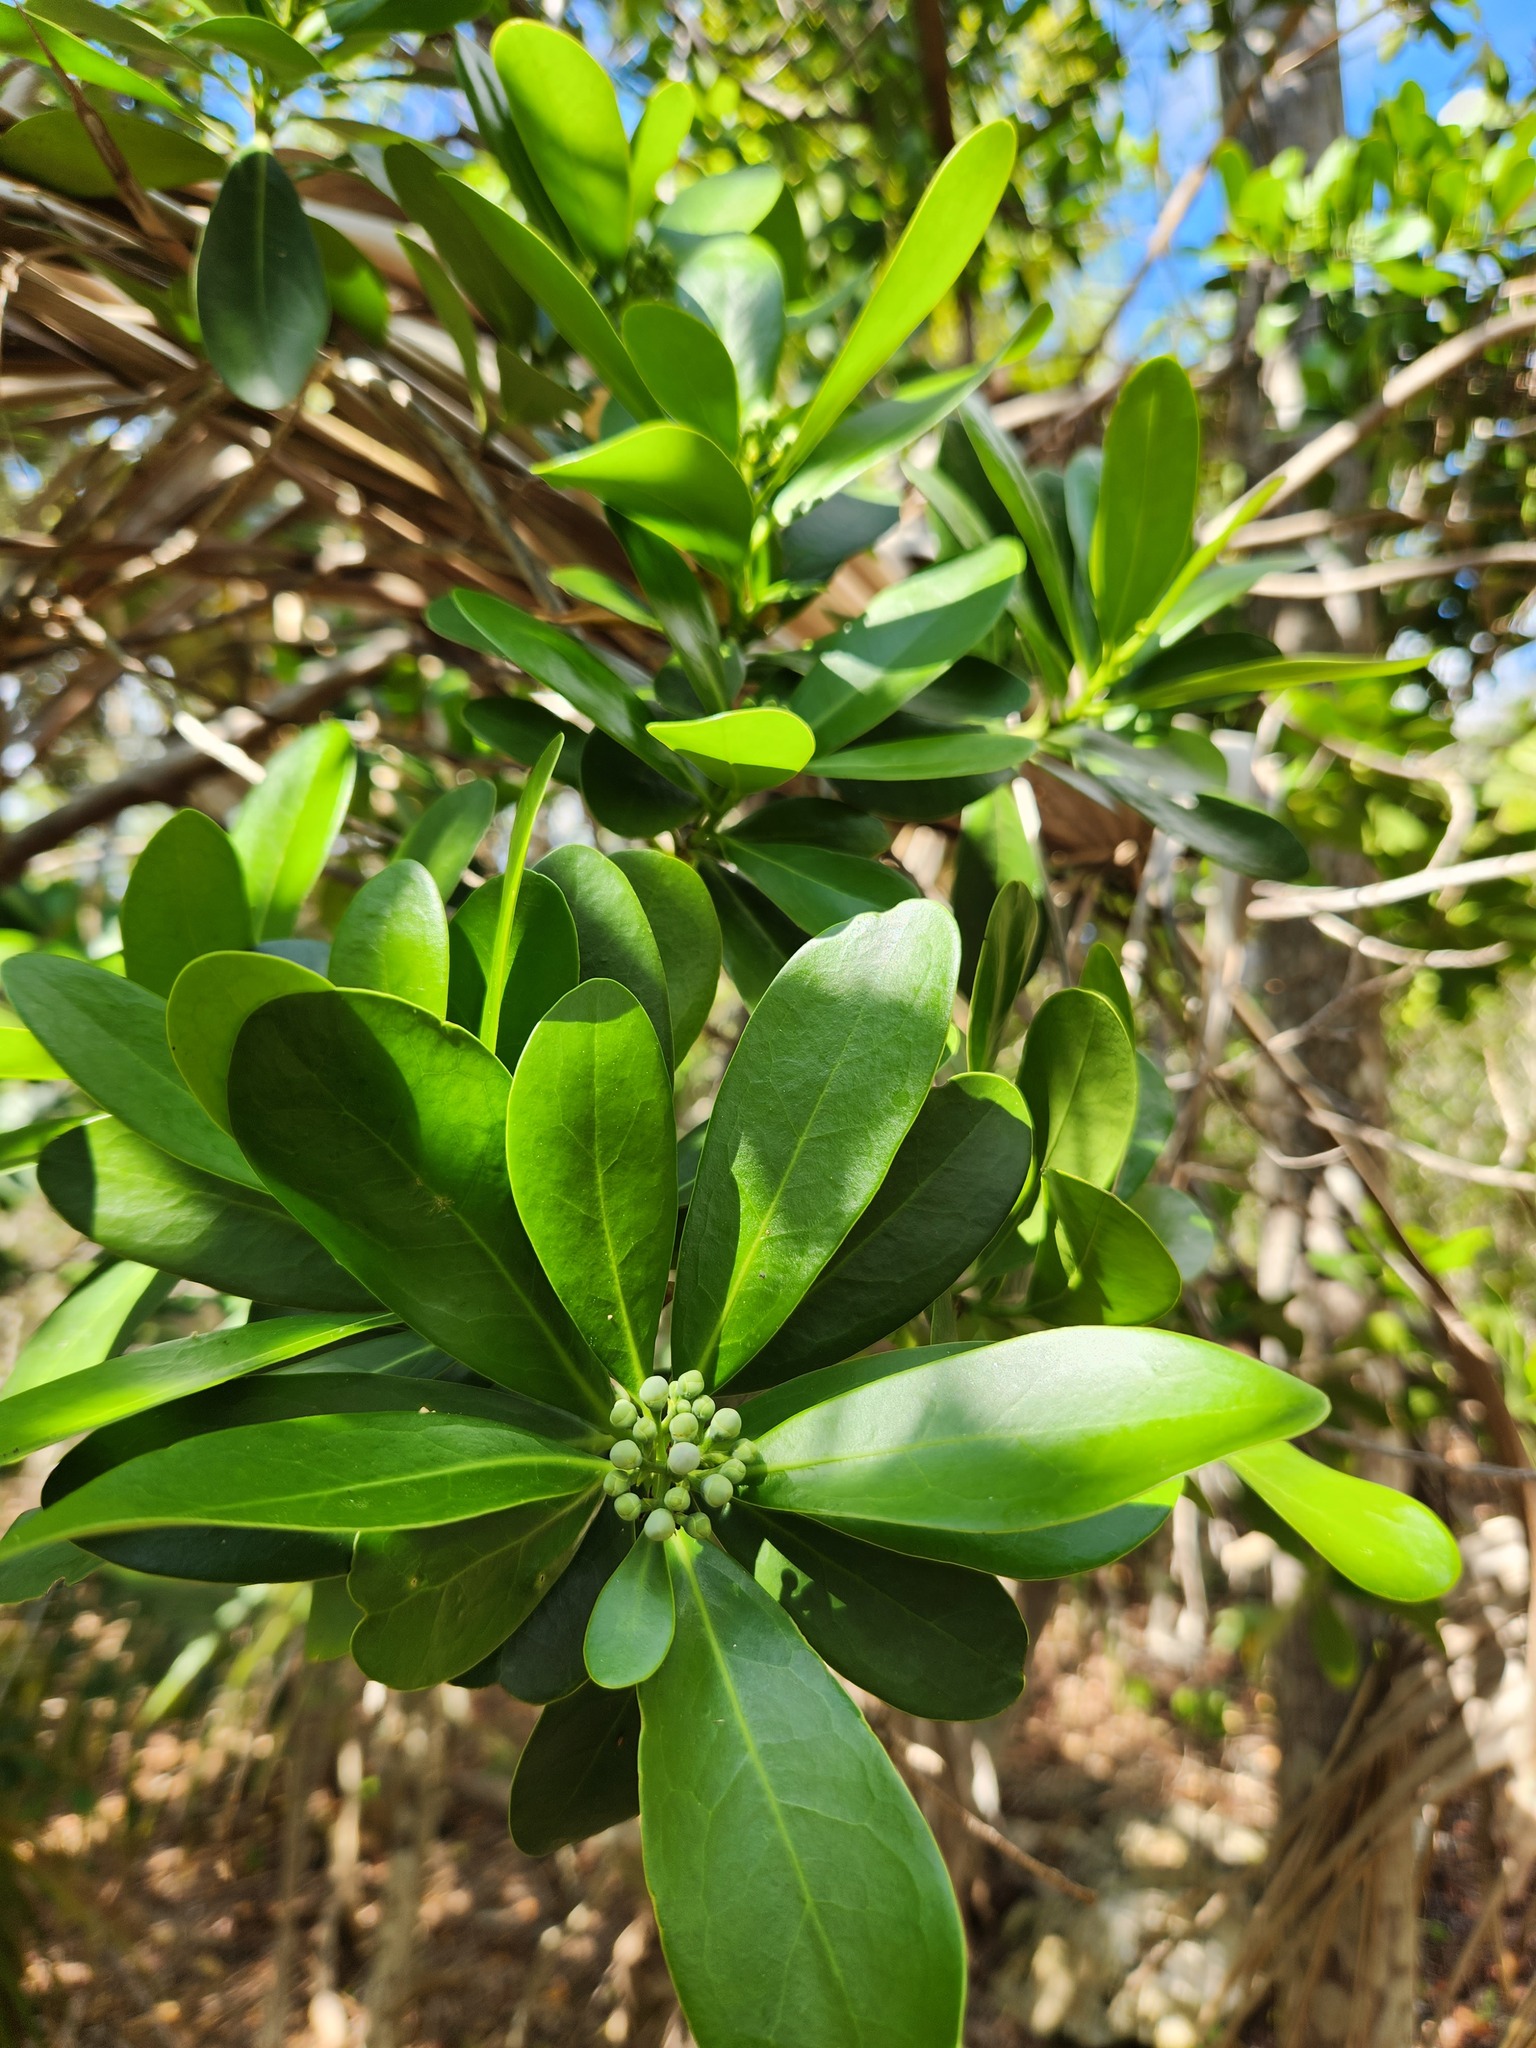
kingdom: Plantae
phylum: Tracheophyta
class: Magnoliopsida
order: Canellales
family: Canellaceae
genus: Canella
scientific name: Canella winterana
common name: Canella
